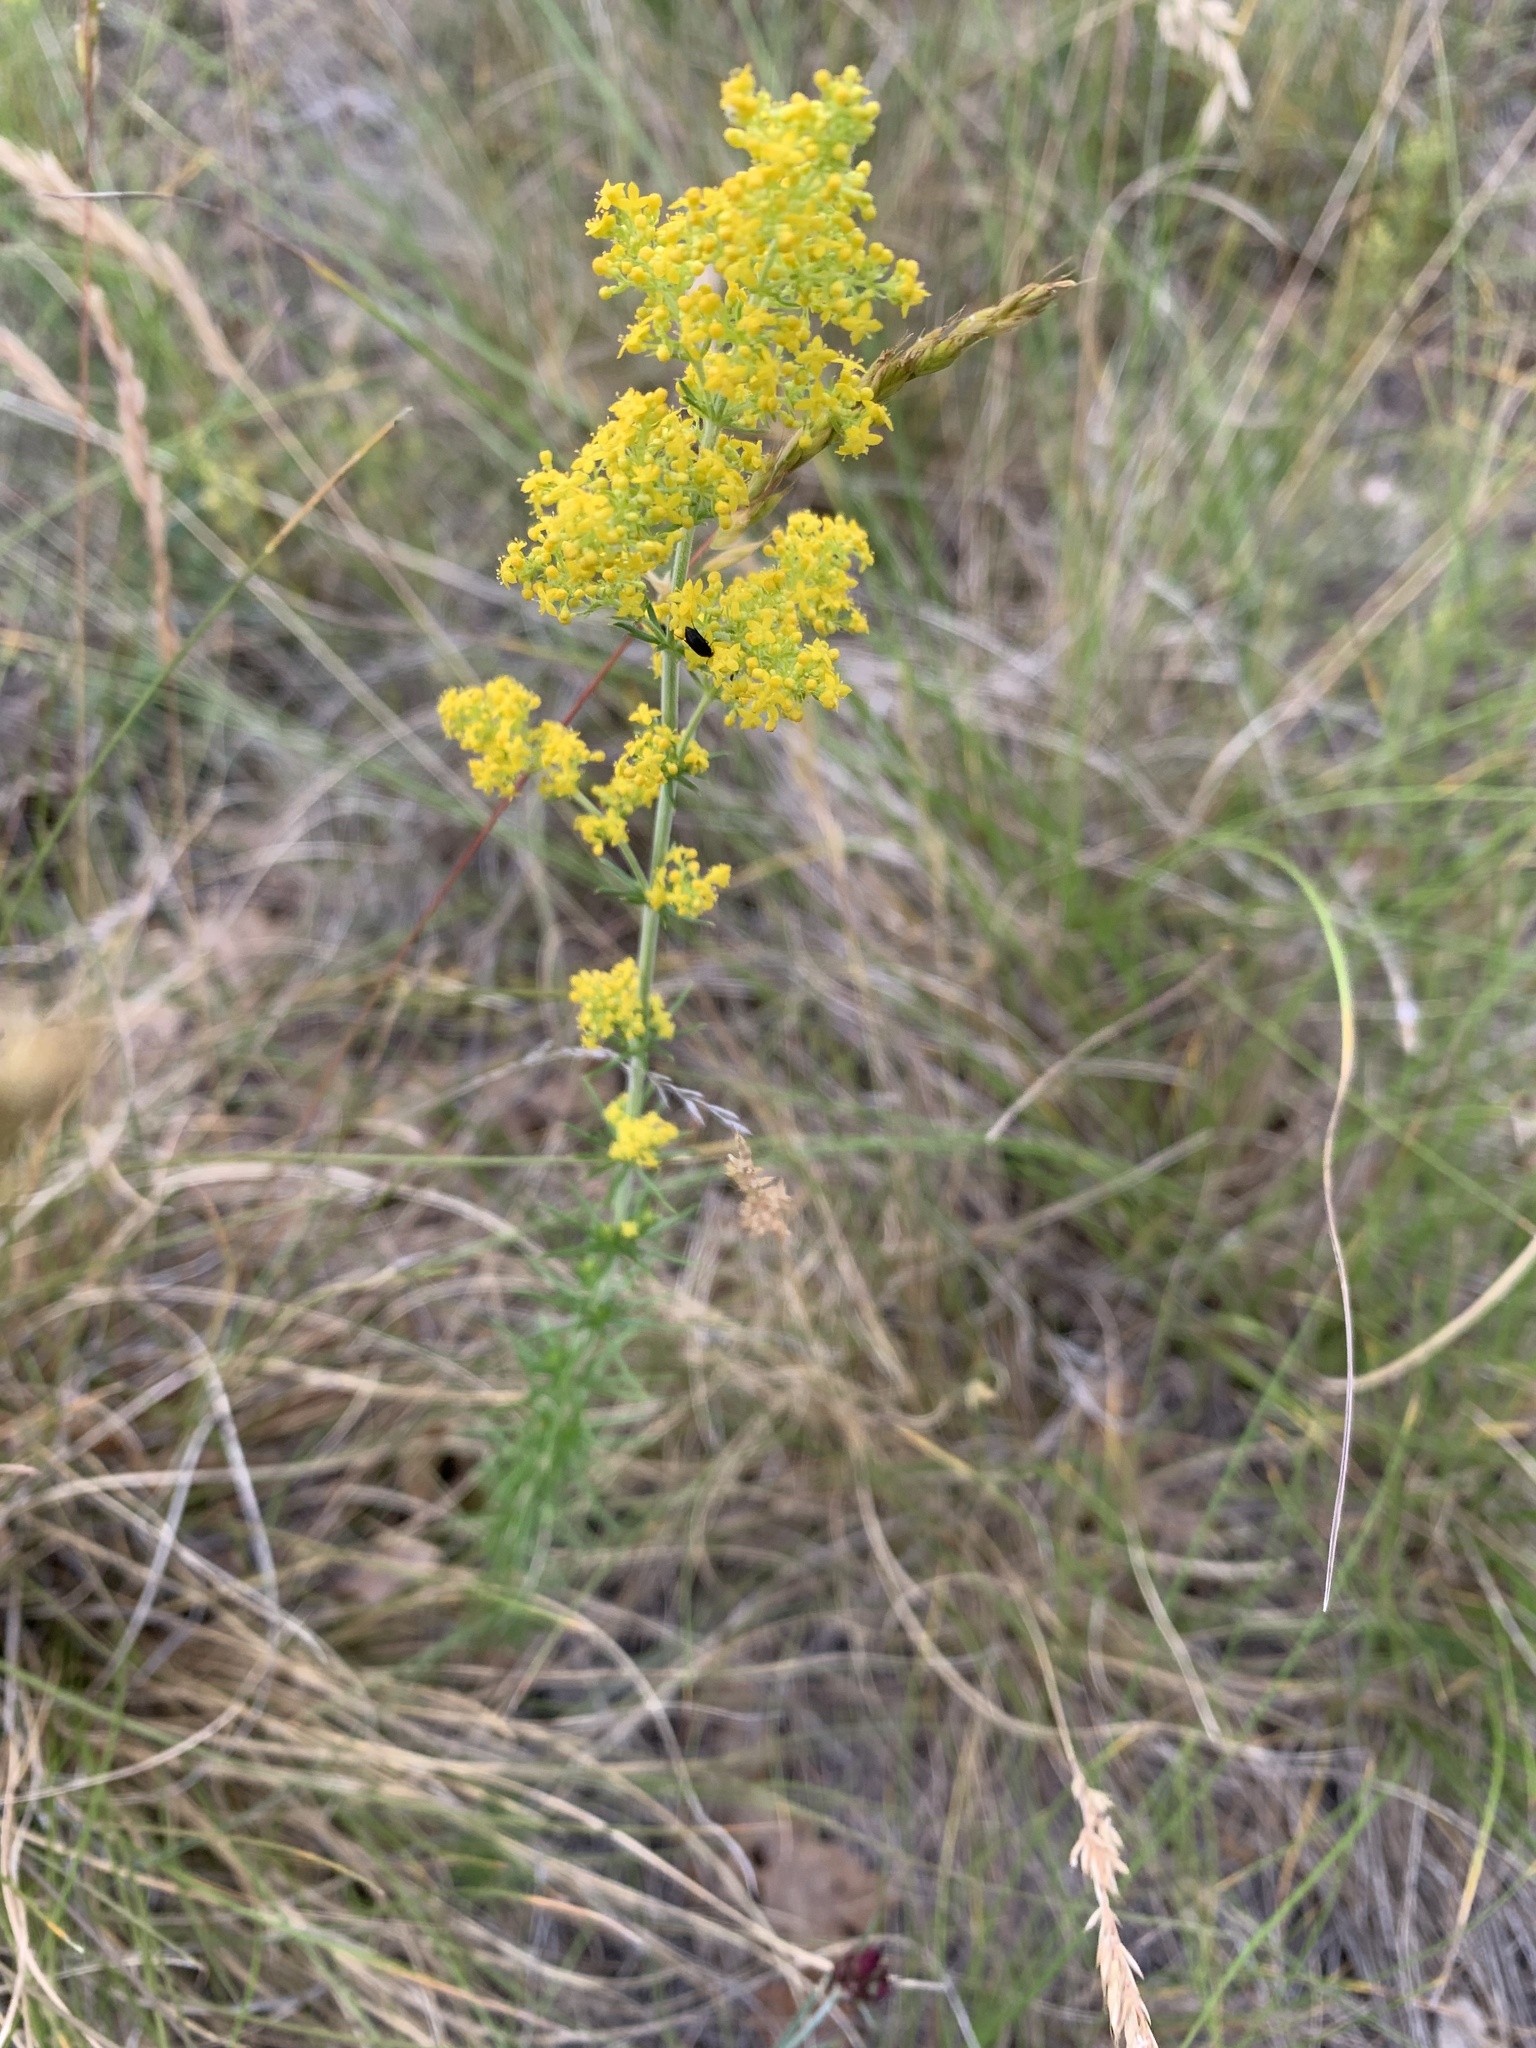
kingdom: Plantae
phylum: Tracheophyta
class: Magnoliopsida
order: Gentianales
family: Rubiaceae
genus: Galium
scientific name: Galium verum
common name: Lady's bedstraw
